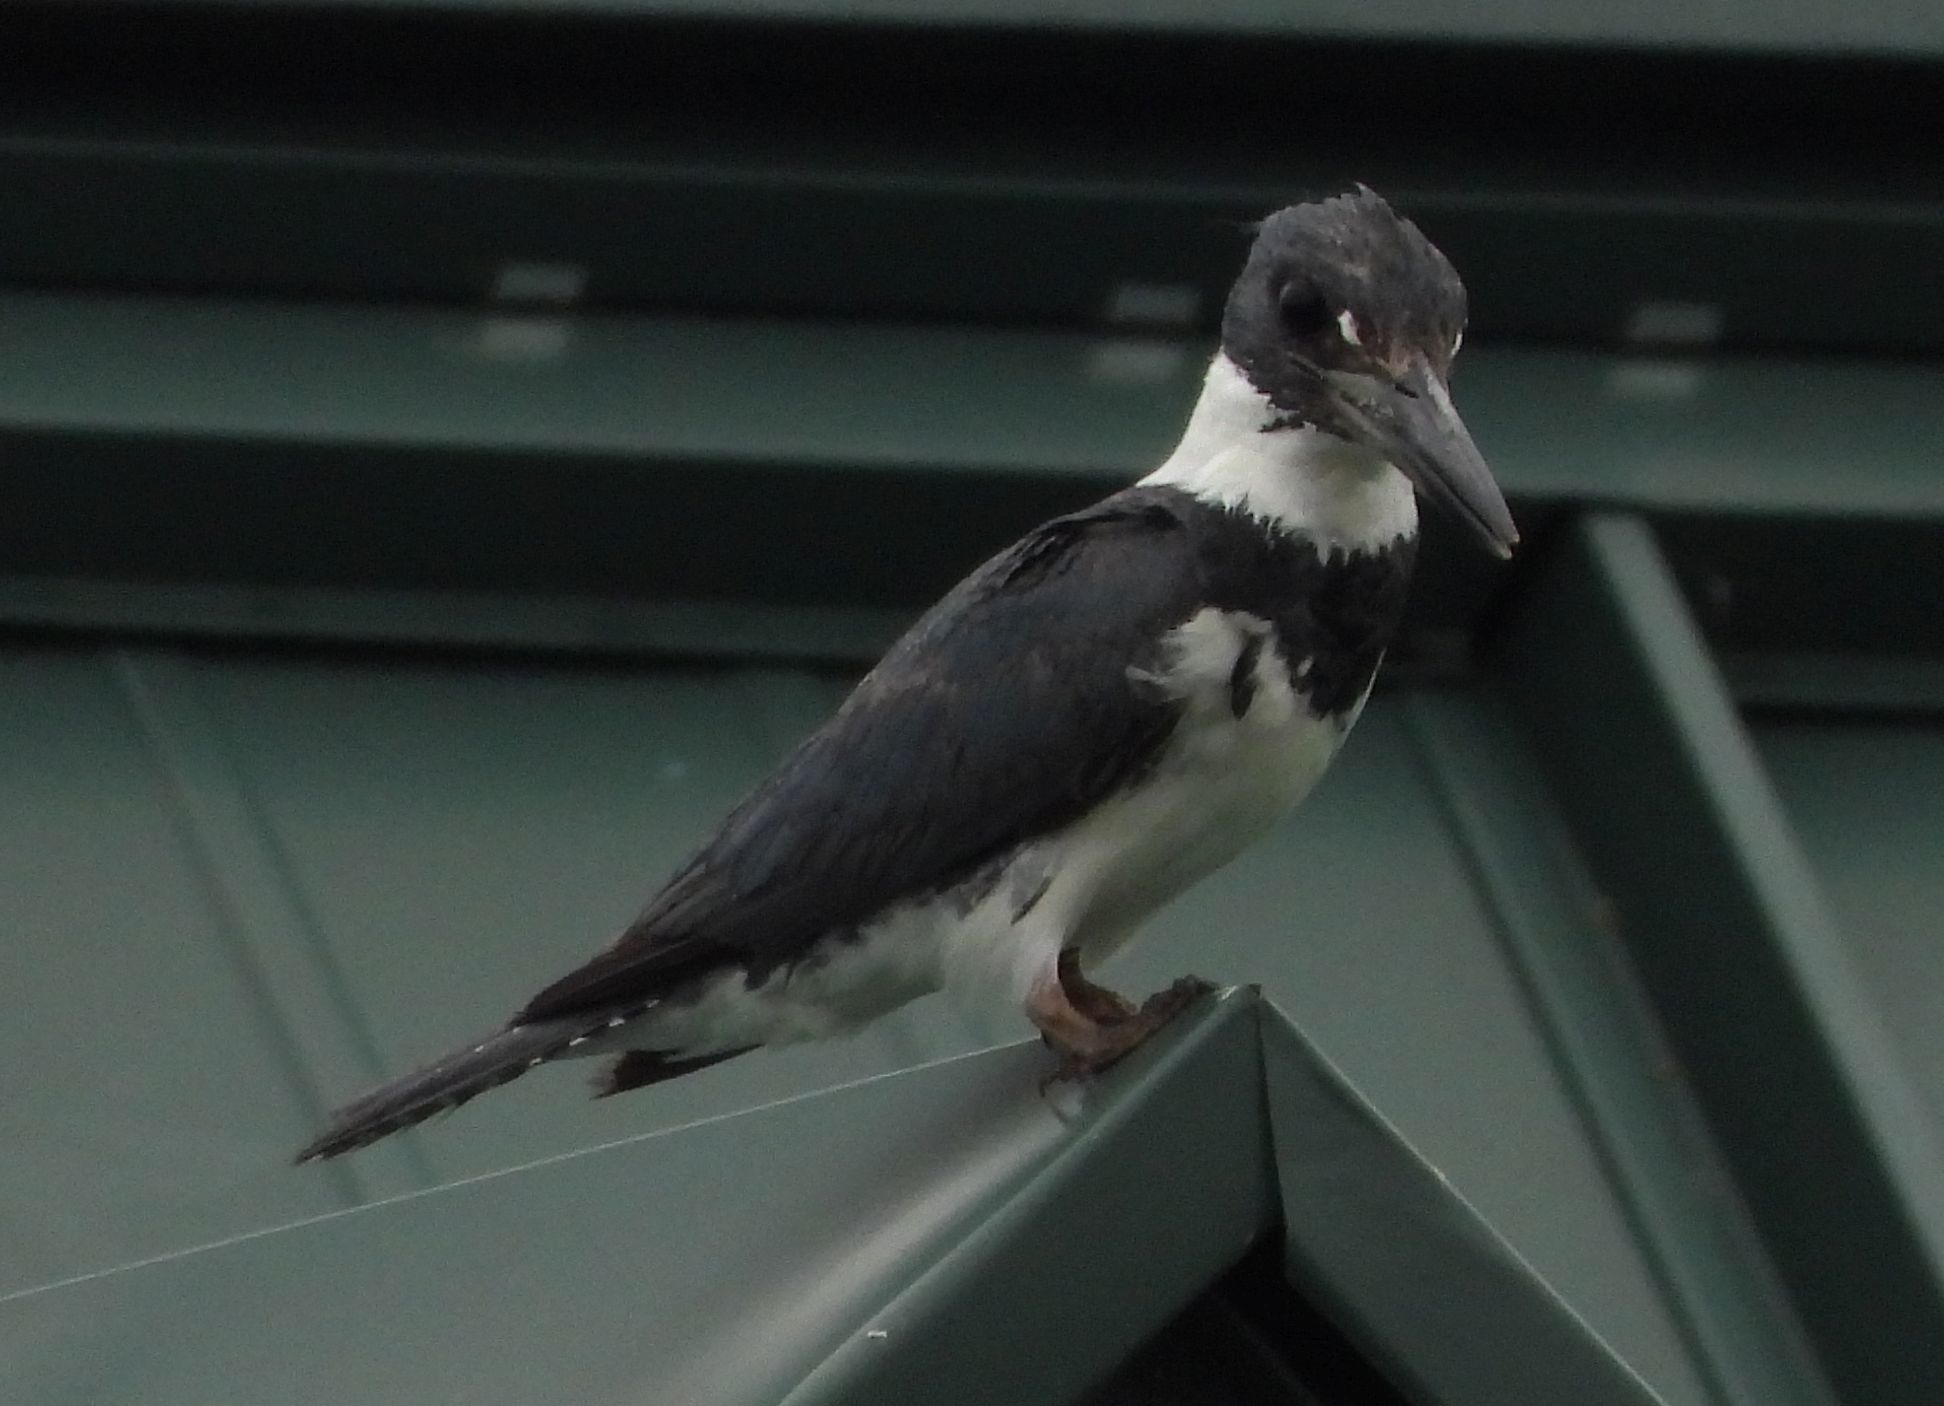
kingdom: Animalia
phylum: Chordata
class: Aves
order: Coraciiformes
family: Alcedinidae
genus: Megaceryle
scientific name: Megaceryle alcyon
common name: Belted kingfisher
